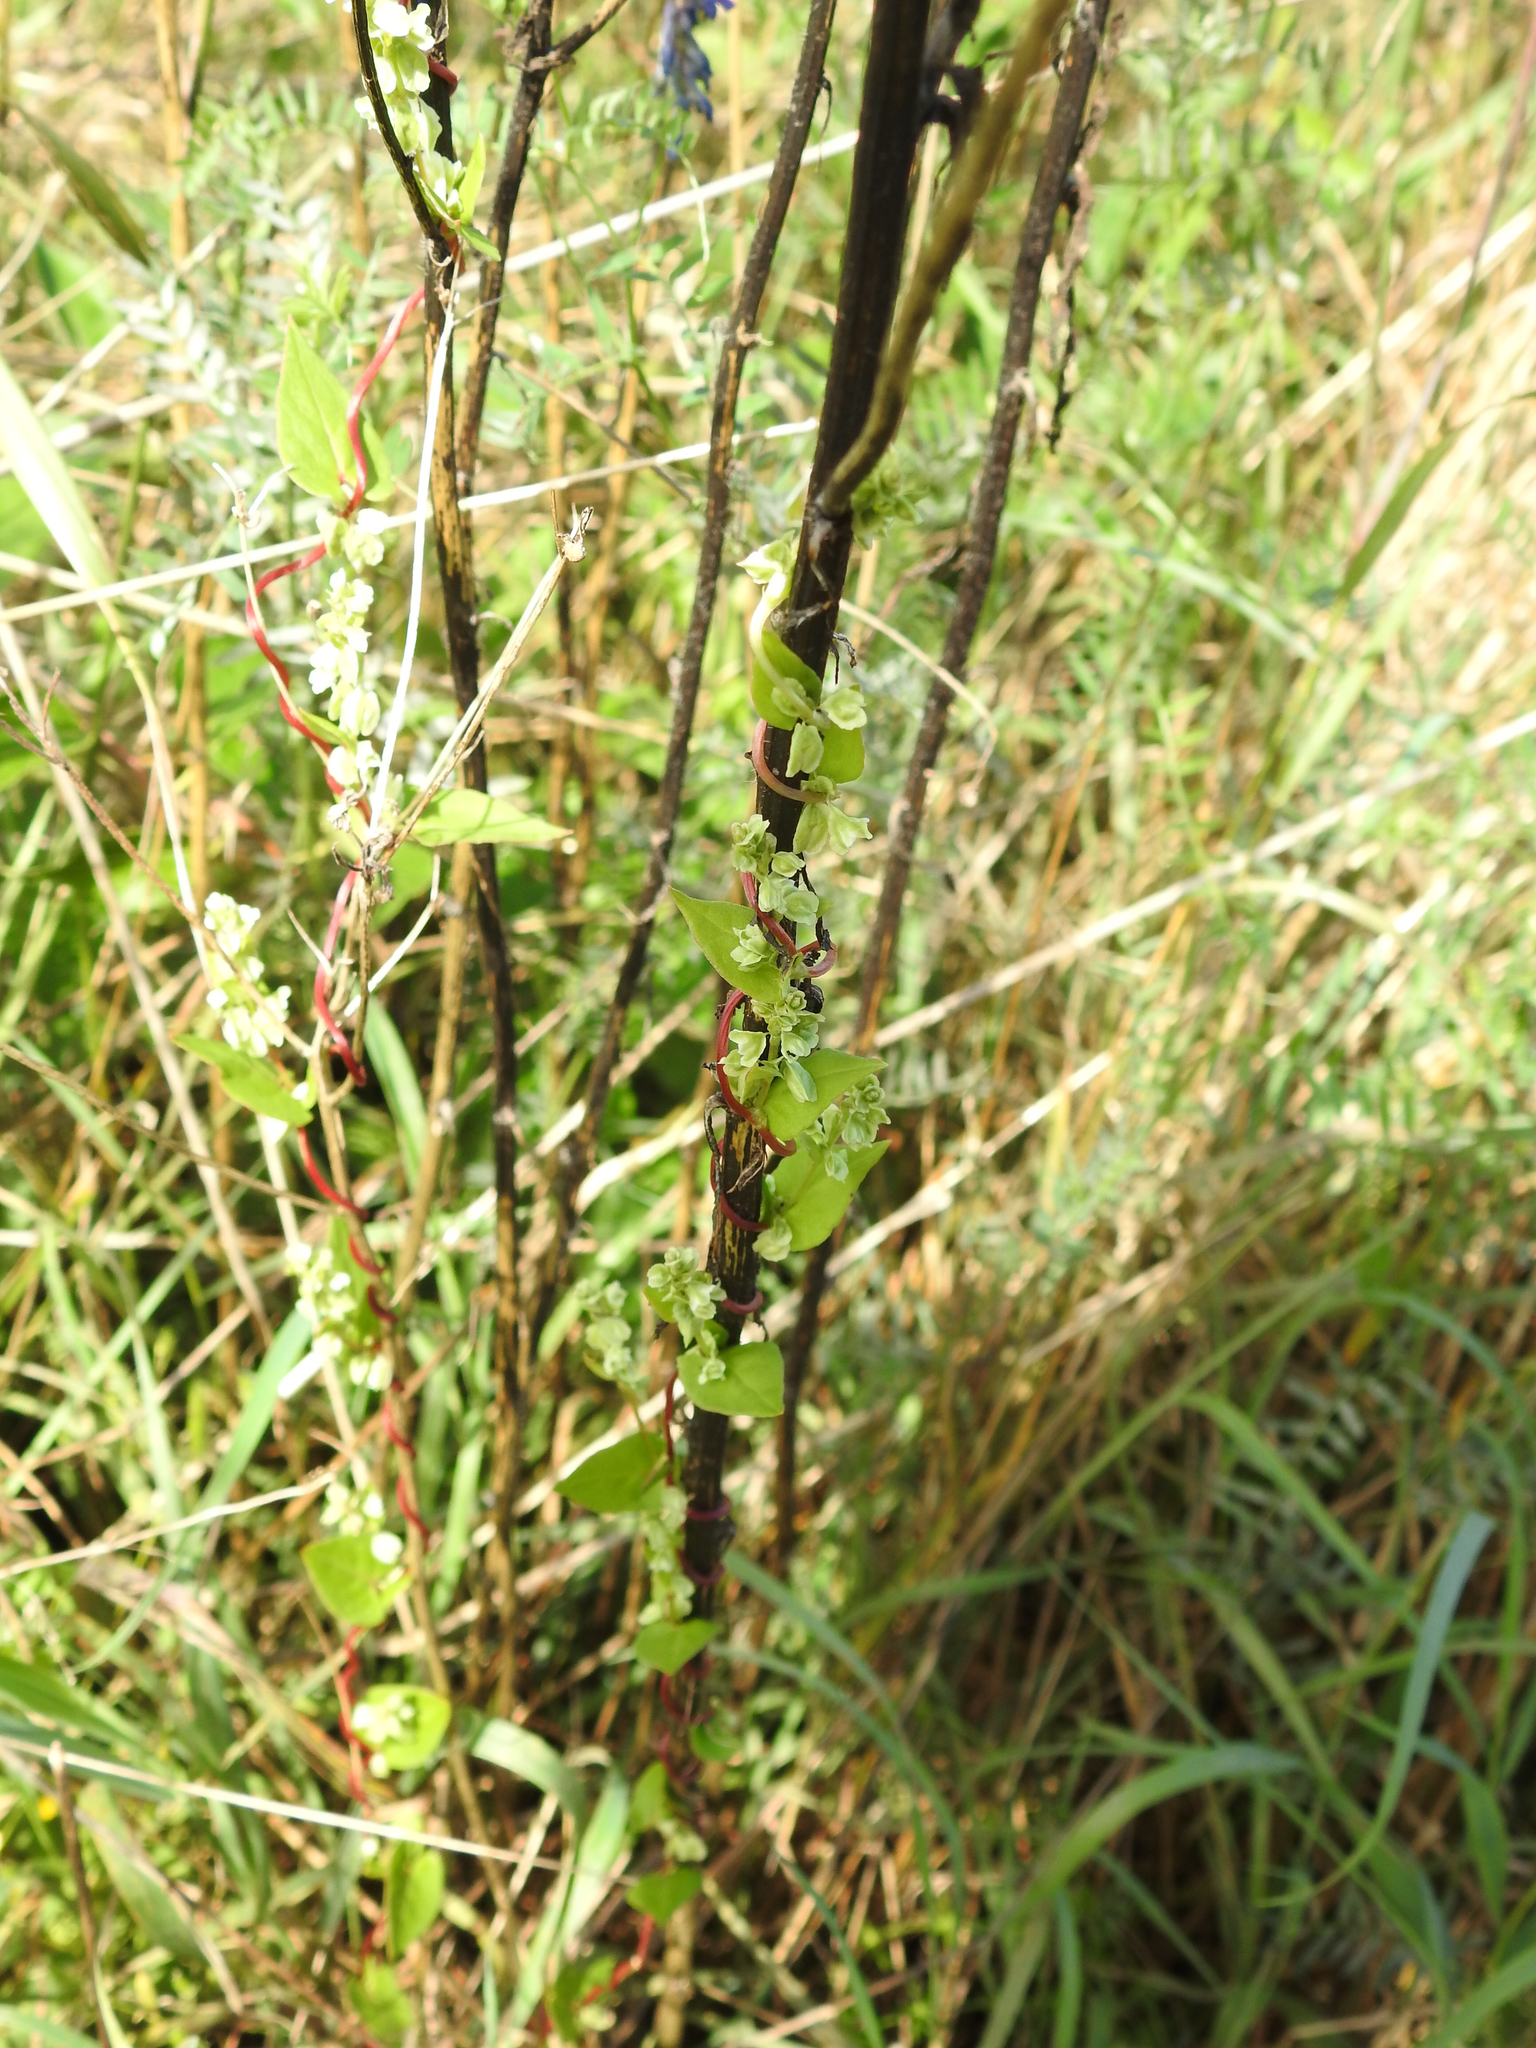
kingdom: Plantae
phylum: Tracheophyta
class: Magnoliopsida
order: Caryophyllales
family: Polygonaceae
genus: Fallopia
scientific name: Fallopia scandens
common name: Climbing false buckwheat
